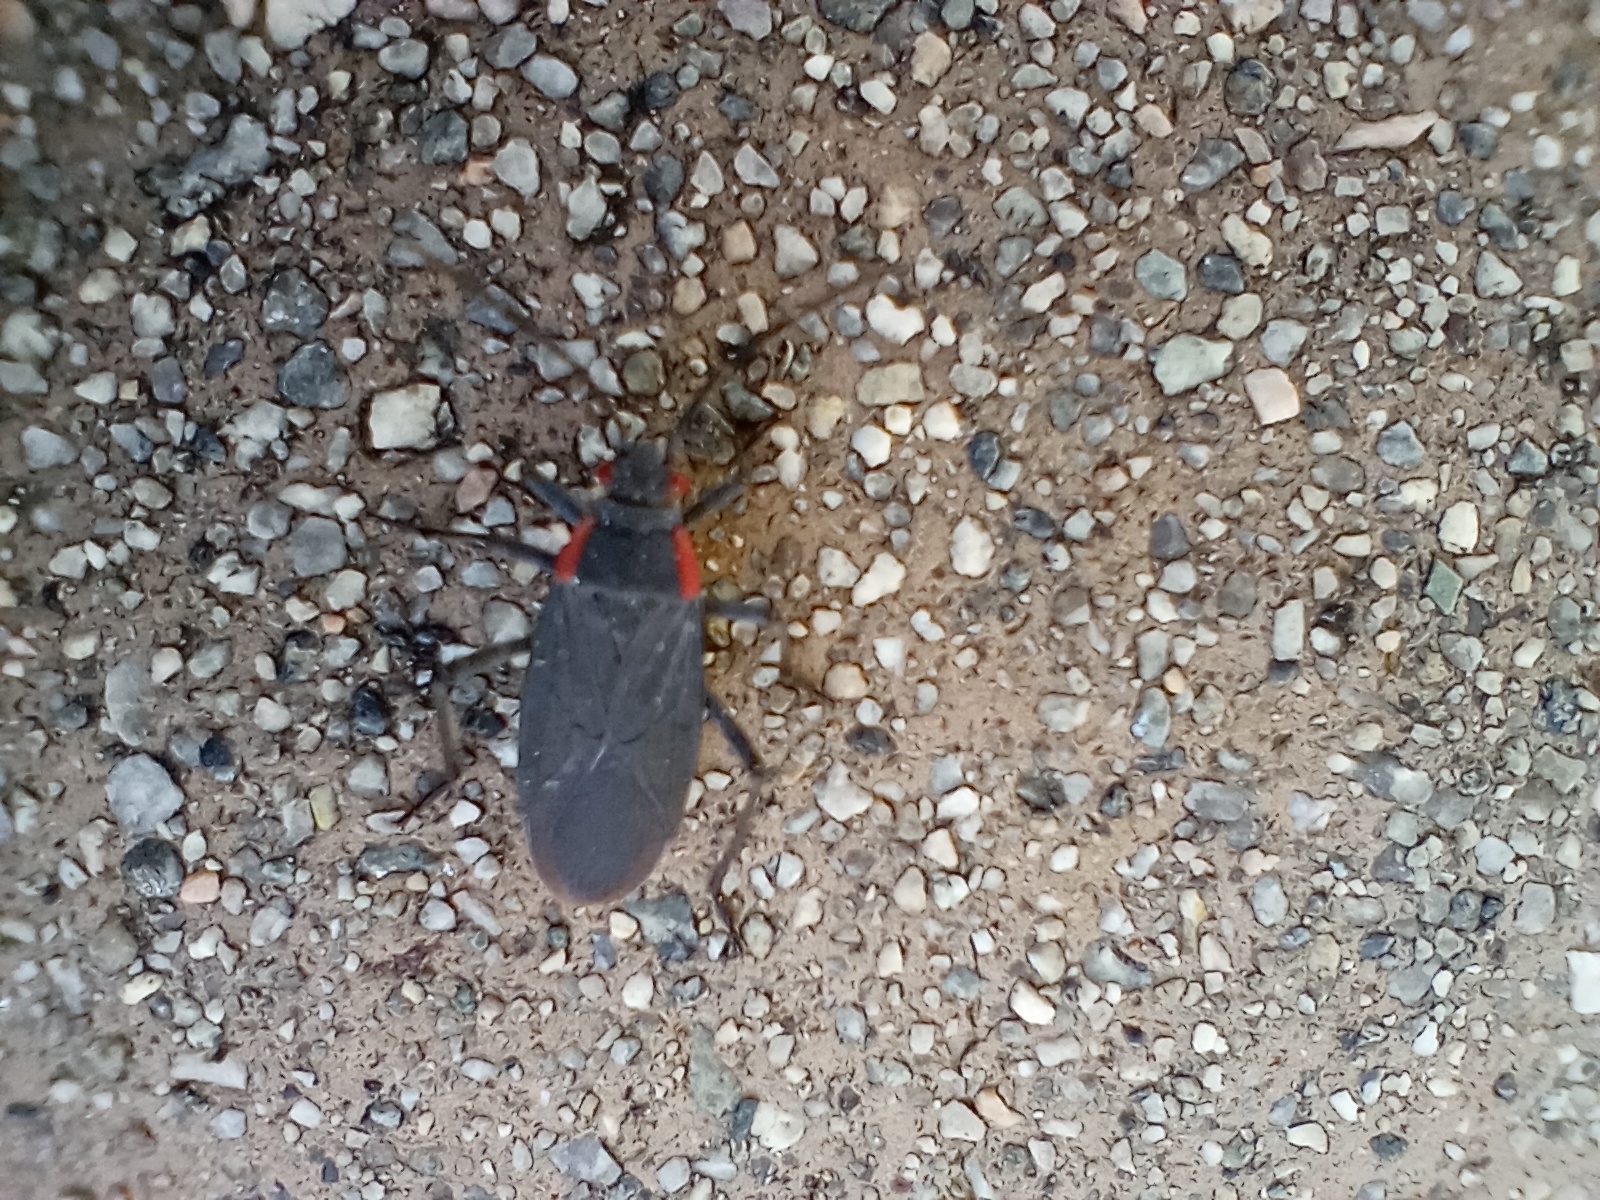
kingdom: Animalia
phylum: Arthropoda
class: Insecta
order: Hemiptera
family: Rhopalidae
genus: Jadera
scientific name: Jadera haematoloma
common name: Red-shouldered bug
